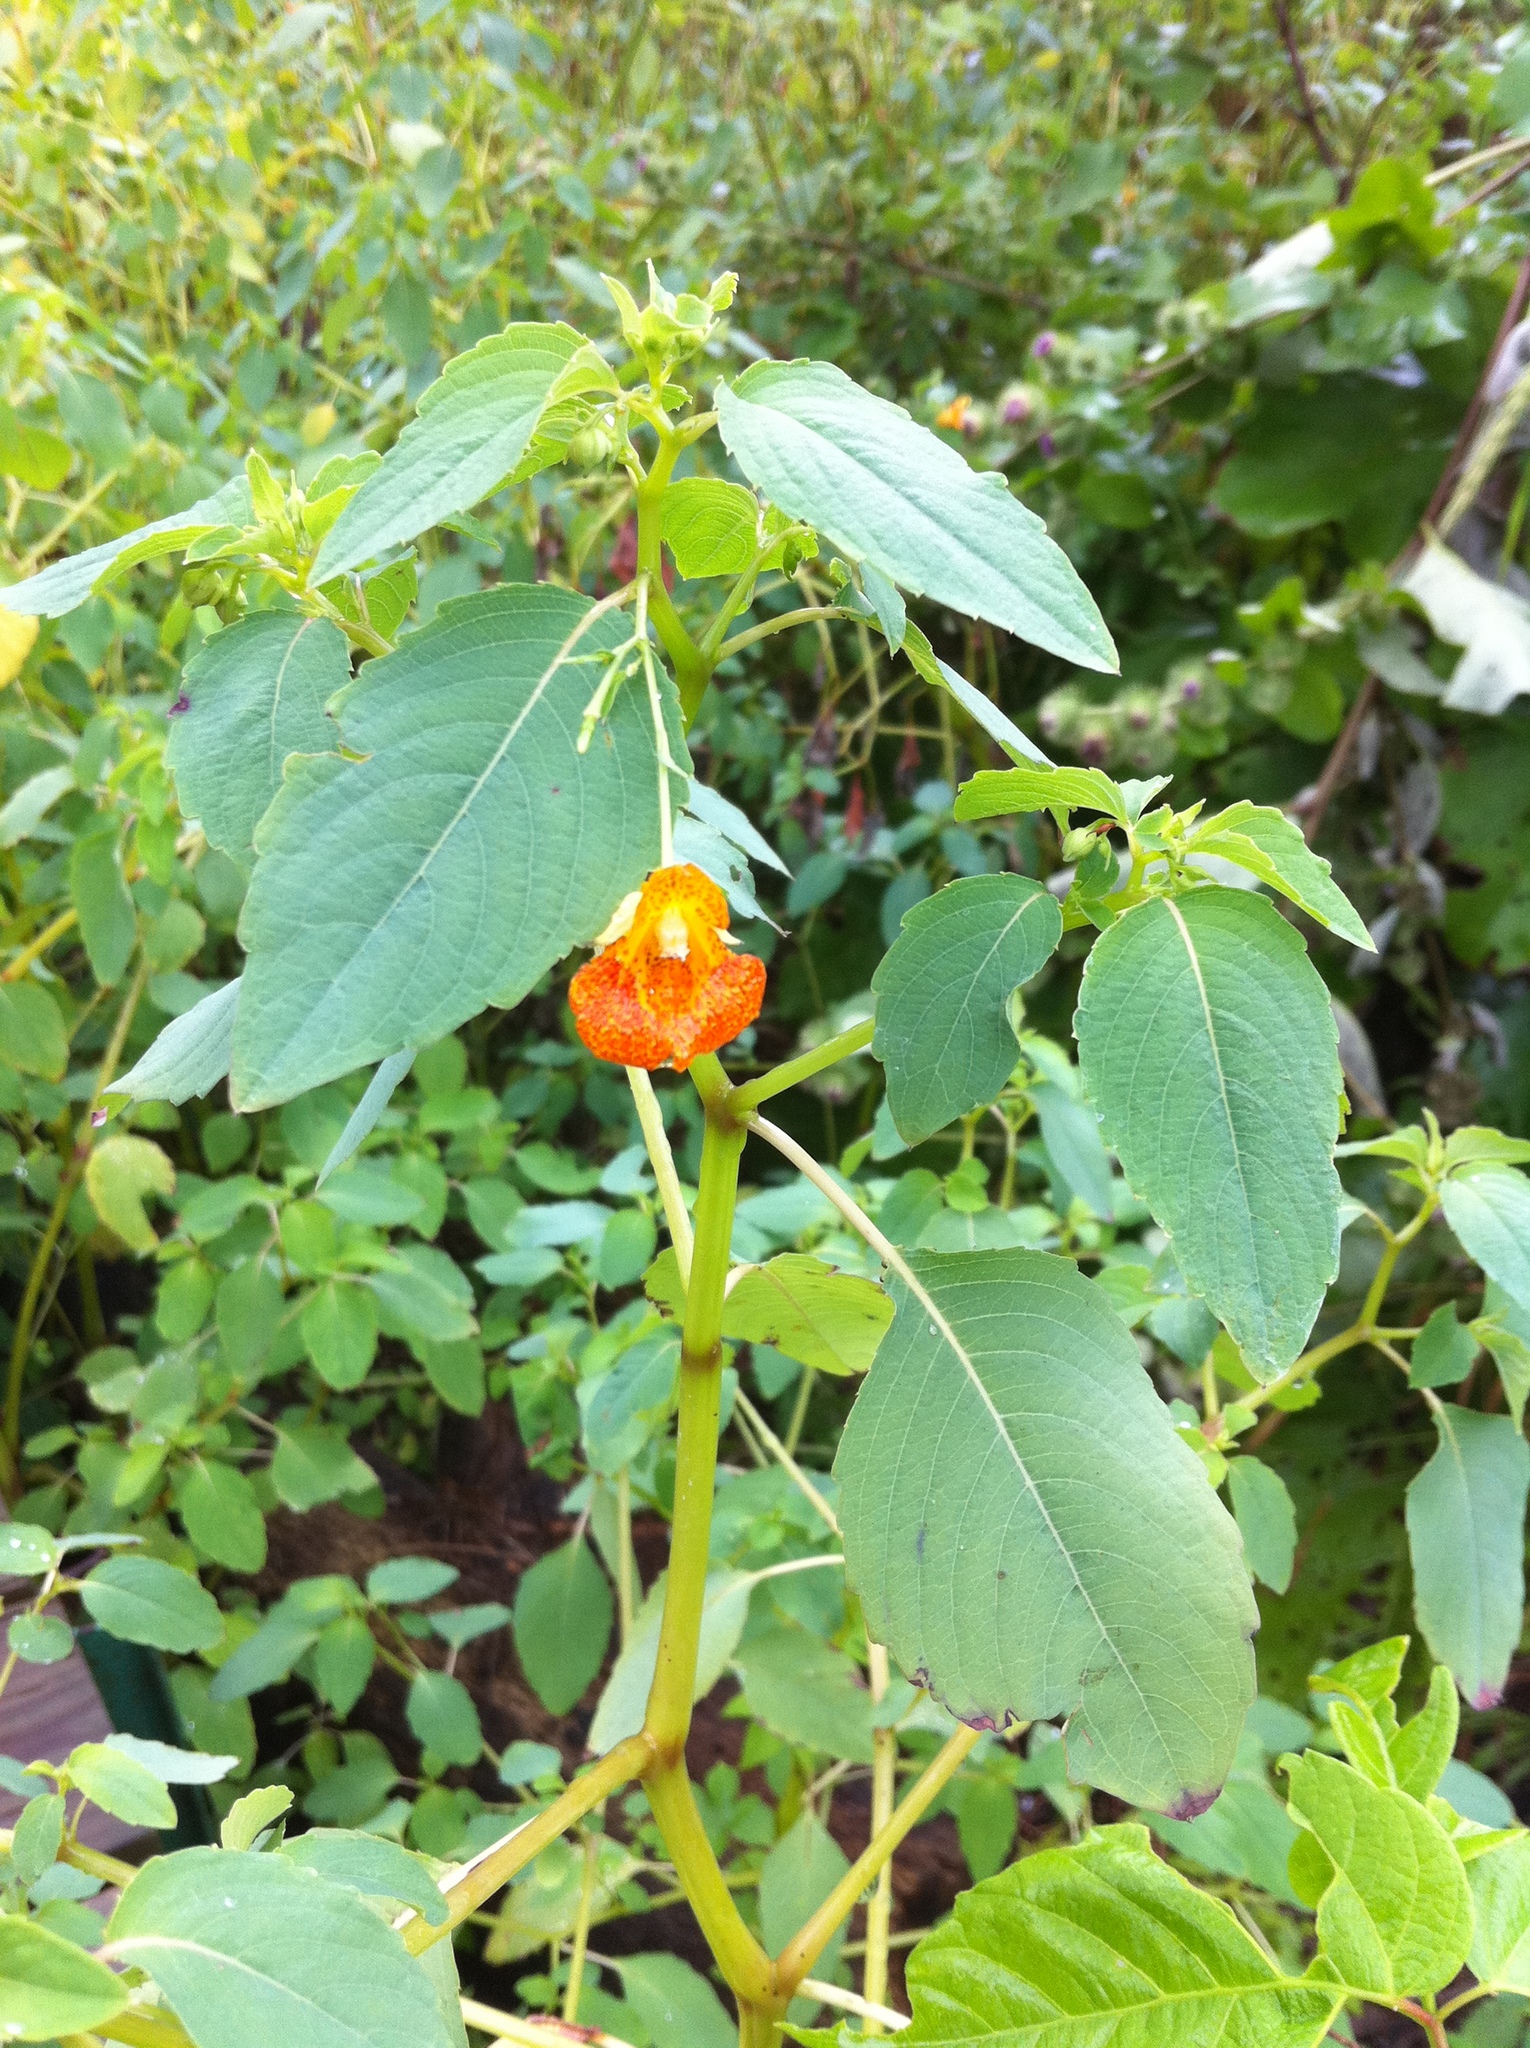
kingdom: Plantae
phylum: Tracheophyta
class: Magnoliopsida
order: Ericales
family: Balsaminaceae
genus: Impatiens
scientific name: Impatiens capensis
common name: Orange balsam
